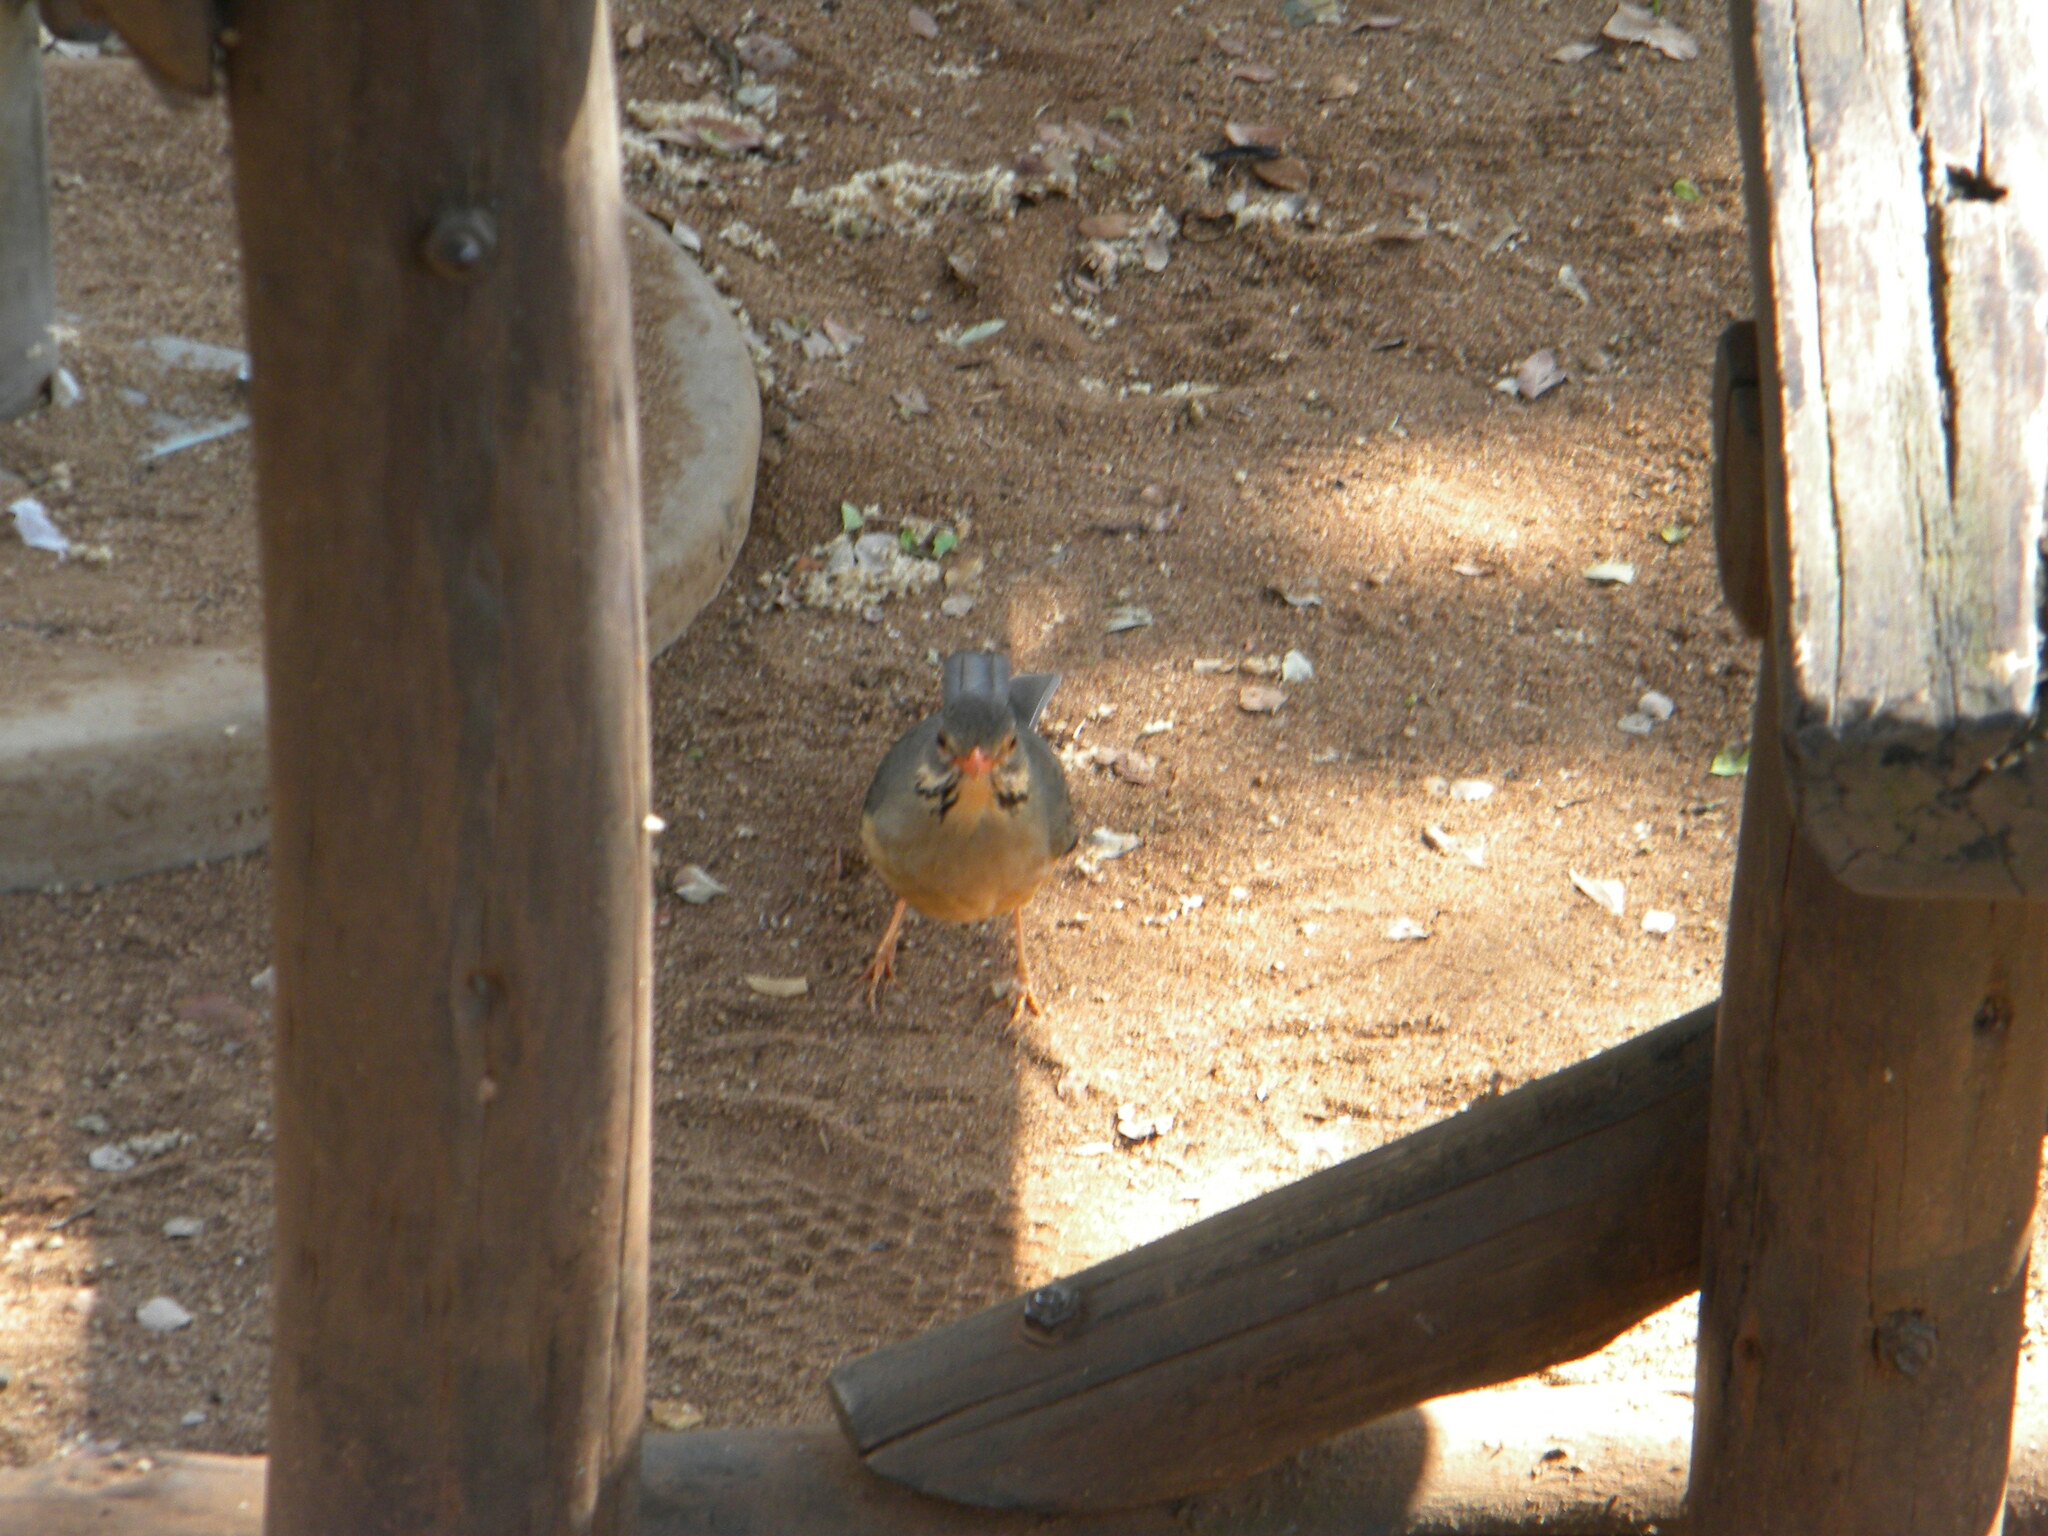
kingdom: Animalia
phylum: Chordata
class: Aves
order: Passeriformes
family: Turdidae
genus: Turdus
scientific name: Turdus libonyana
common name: Kurrichane thrush
